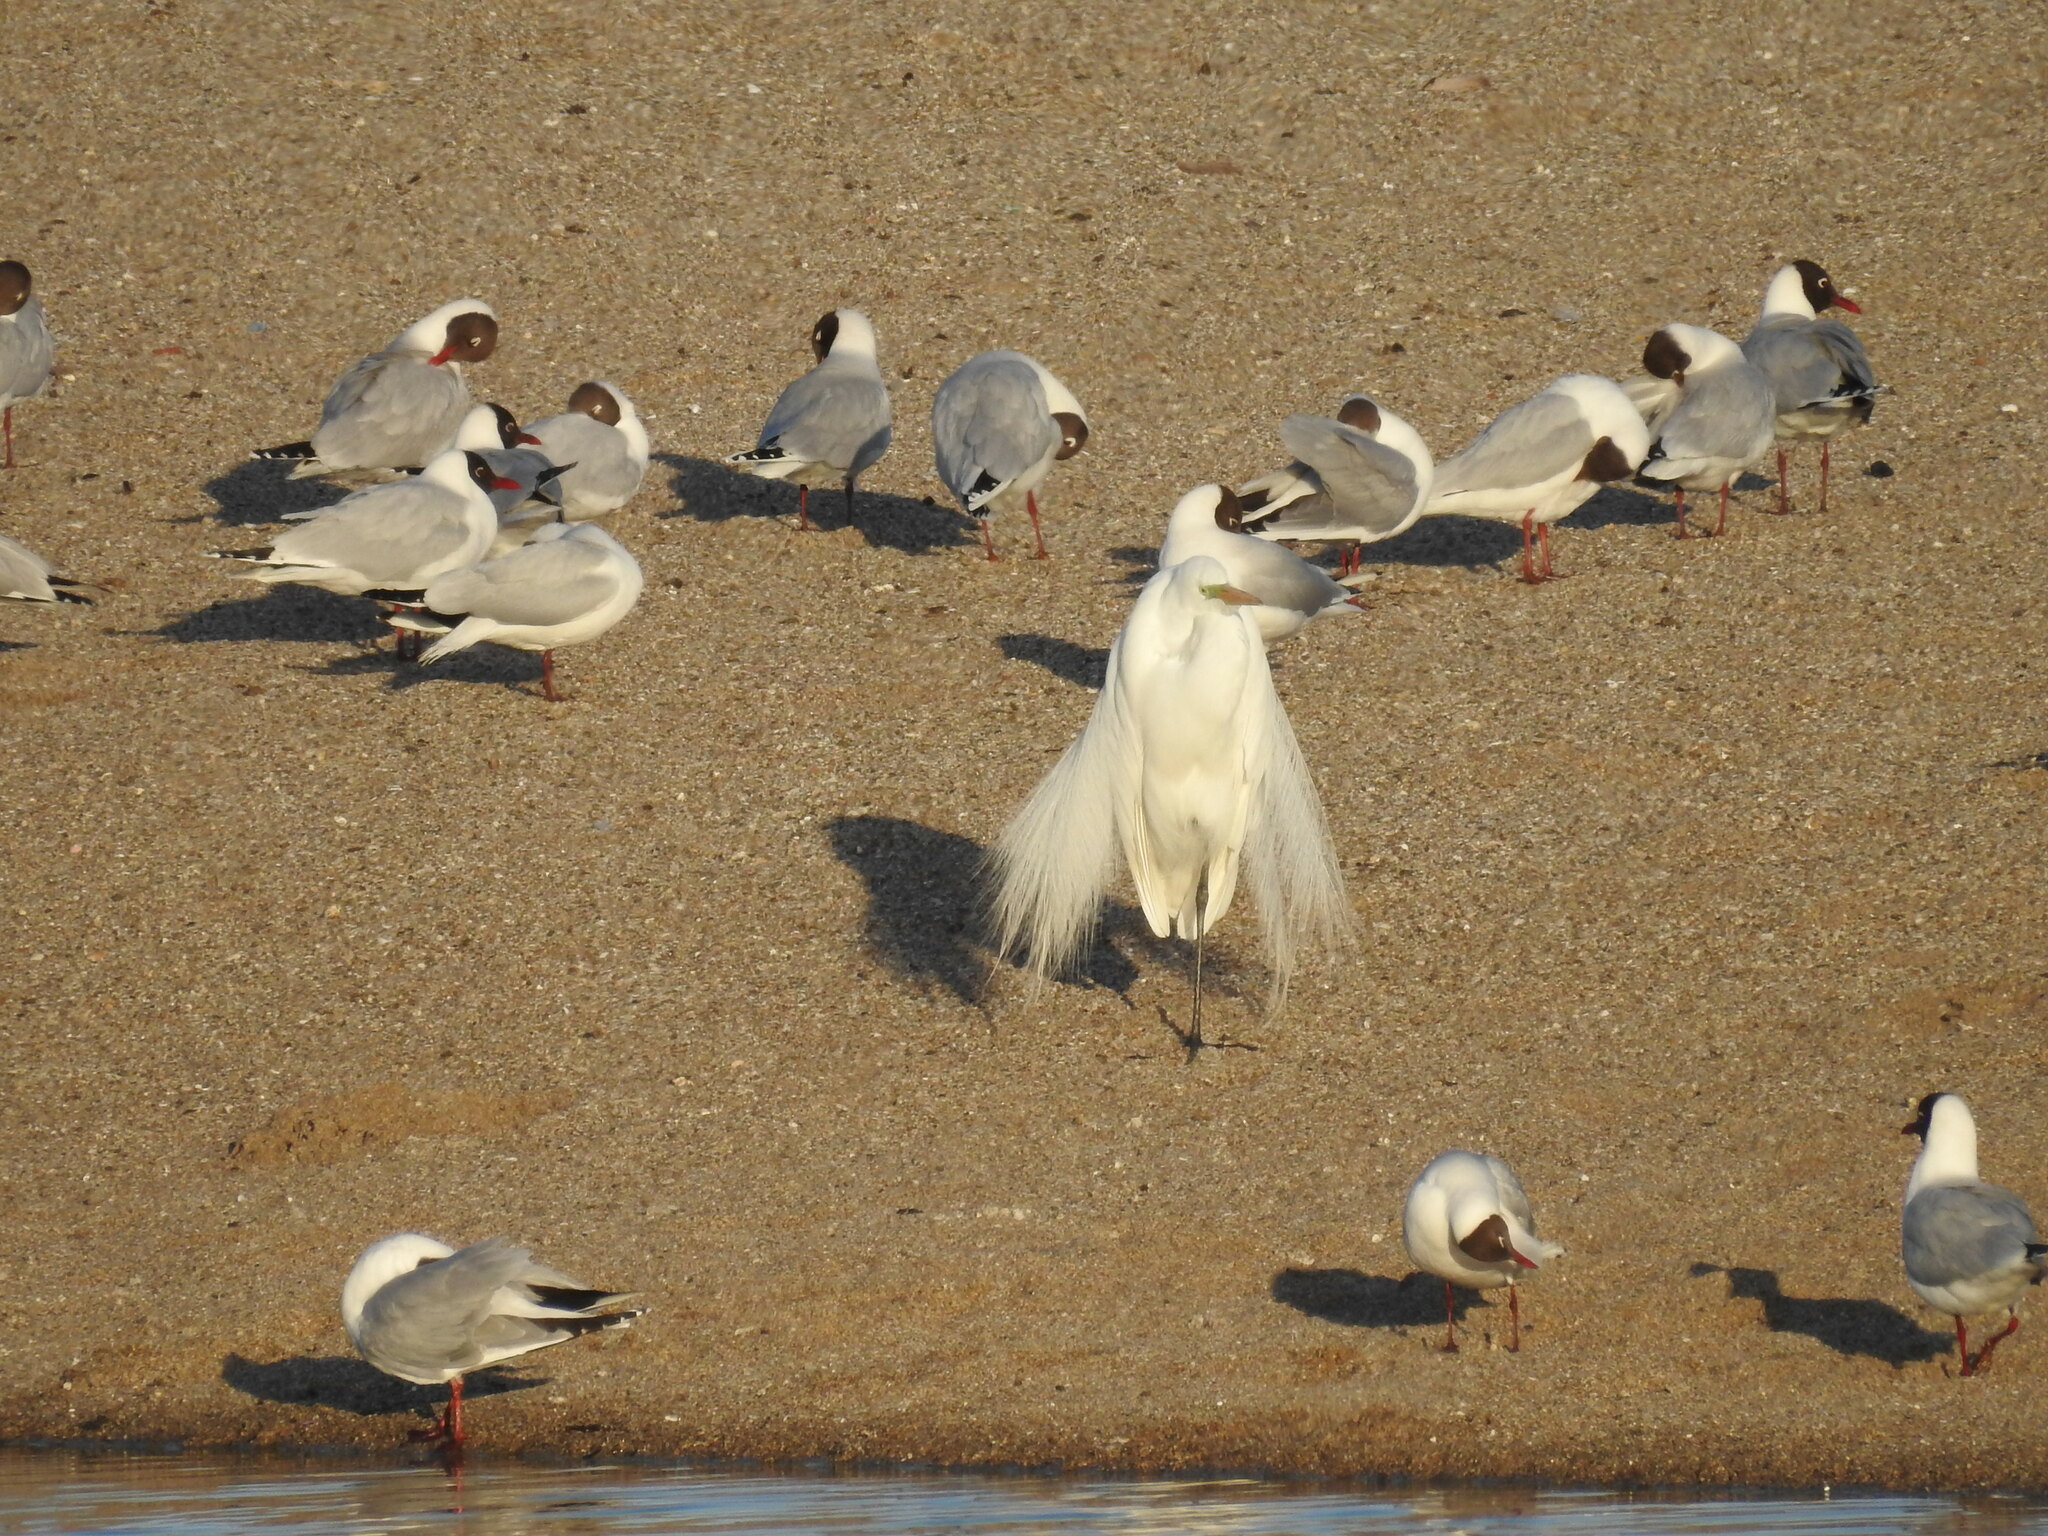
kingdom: Animalia
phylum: Chordata
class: Aves
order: Pelecaniformes
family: Ardeidae
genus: Ardea
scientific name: Ardea alba
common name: Great egret
